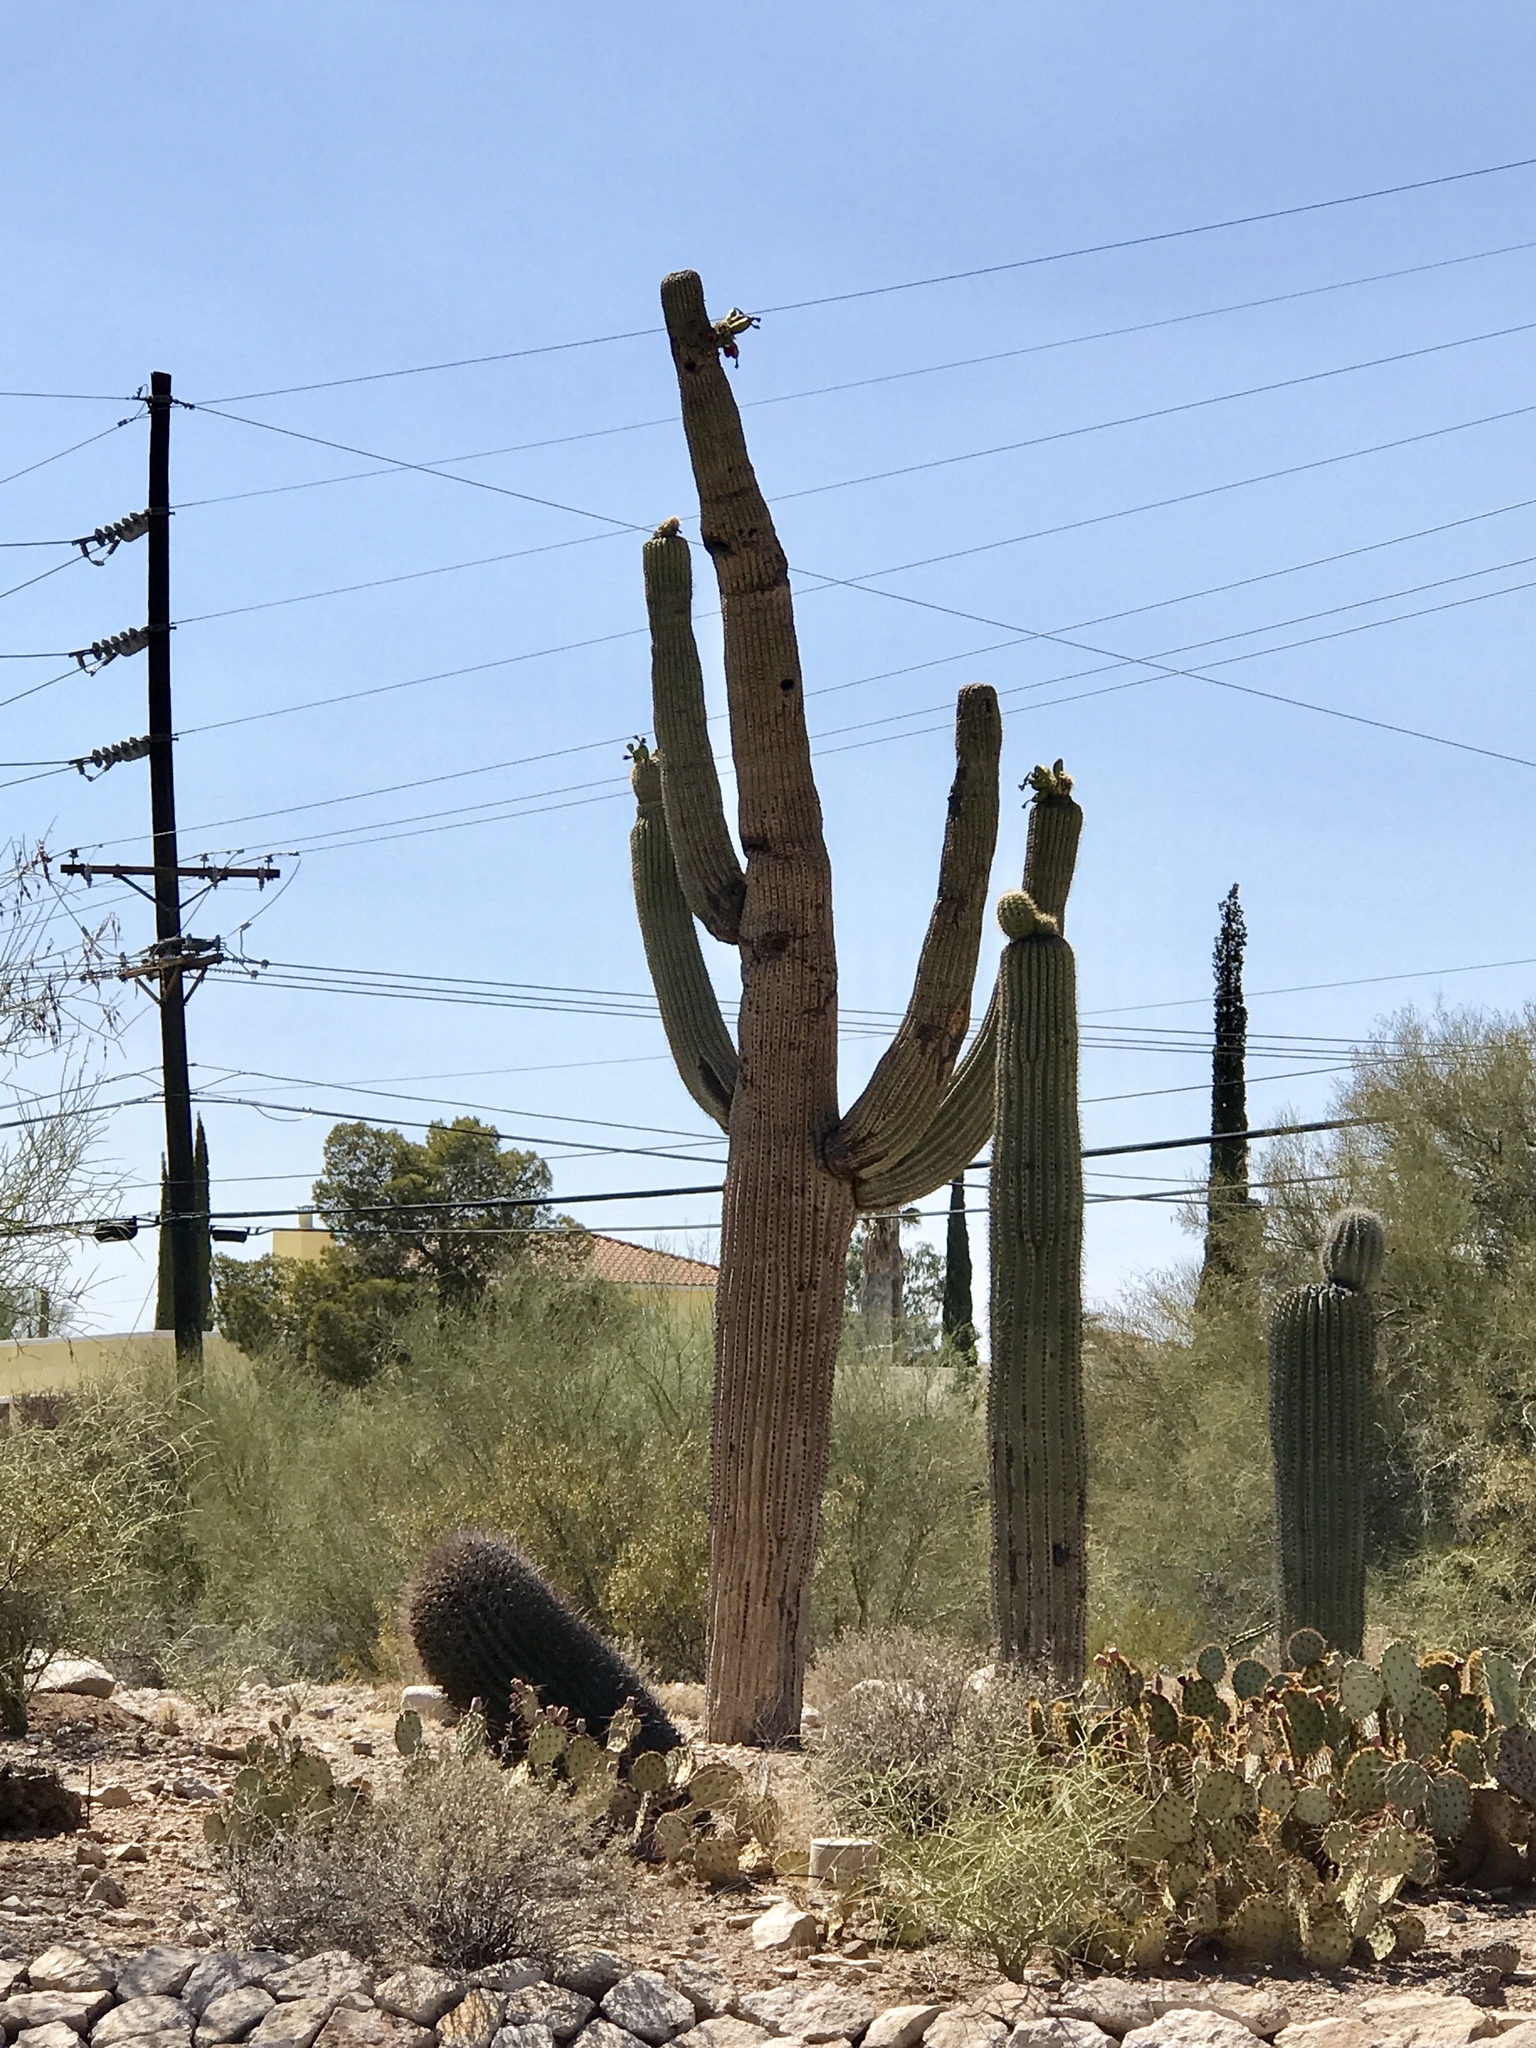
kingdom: Plantae
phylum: Tracheophyta
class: Magnoliopsida
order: Caryophyllales
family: Cactaceae
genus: Carnegiea
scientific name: Carnegiea gigantea
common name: Saguaro
